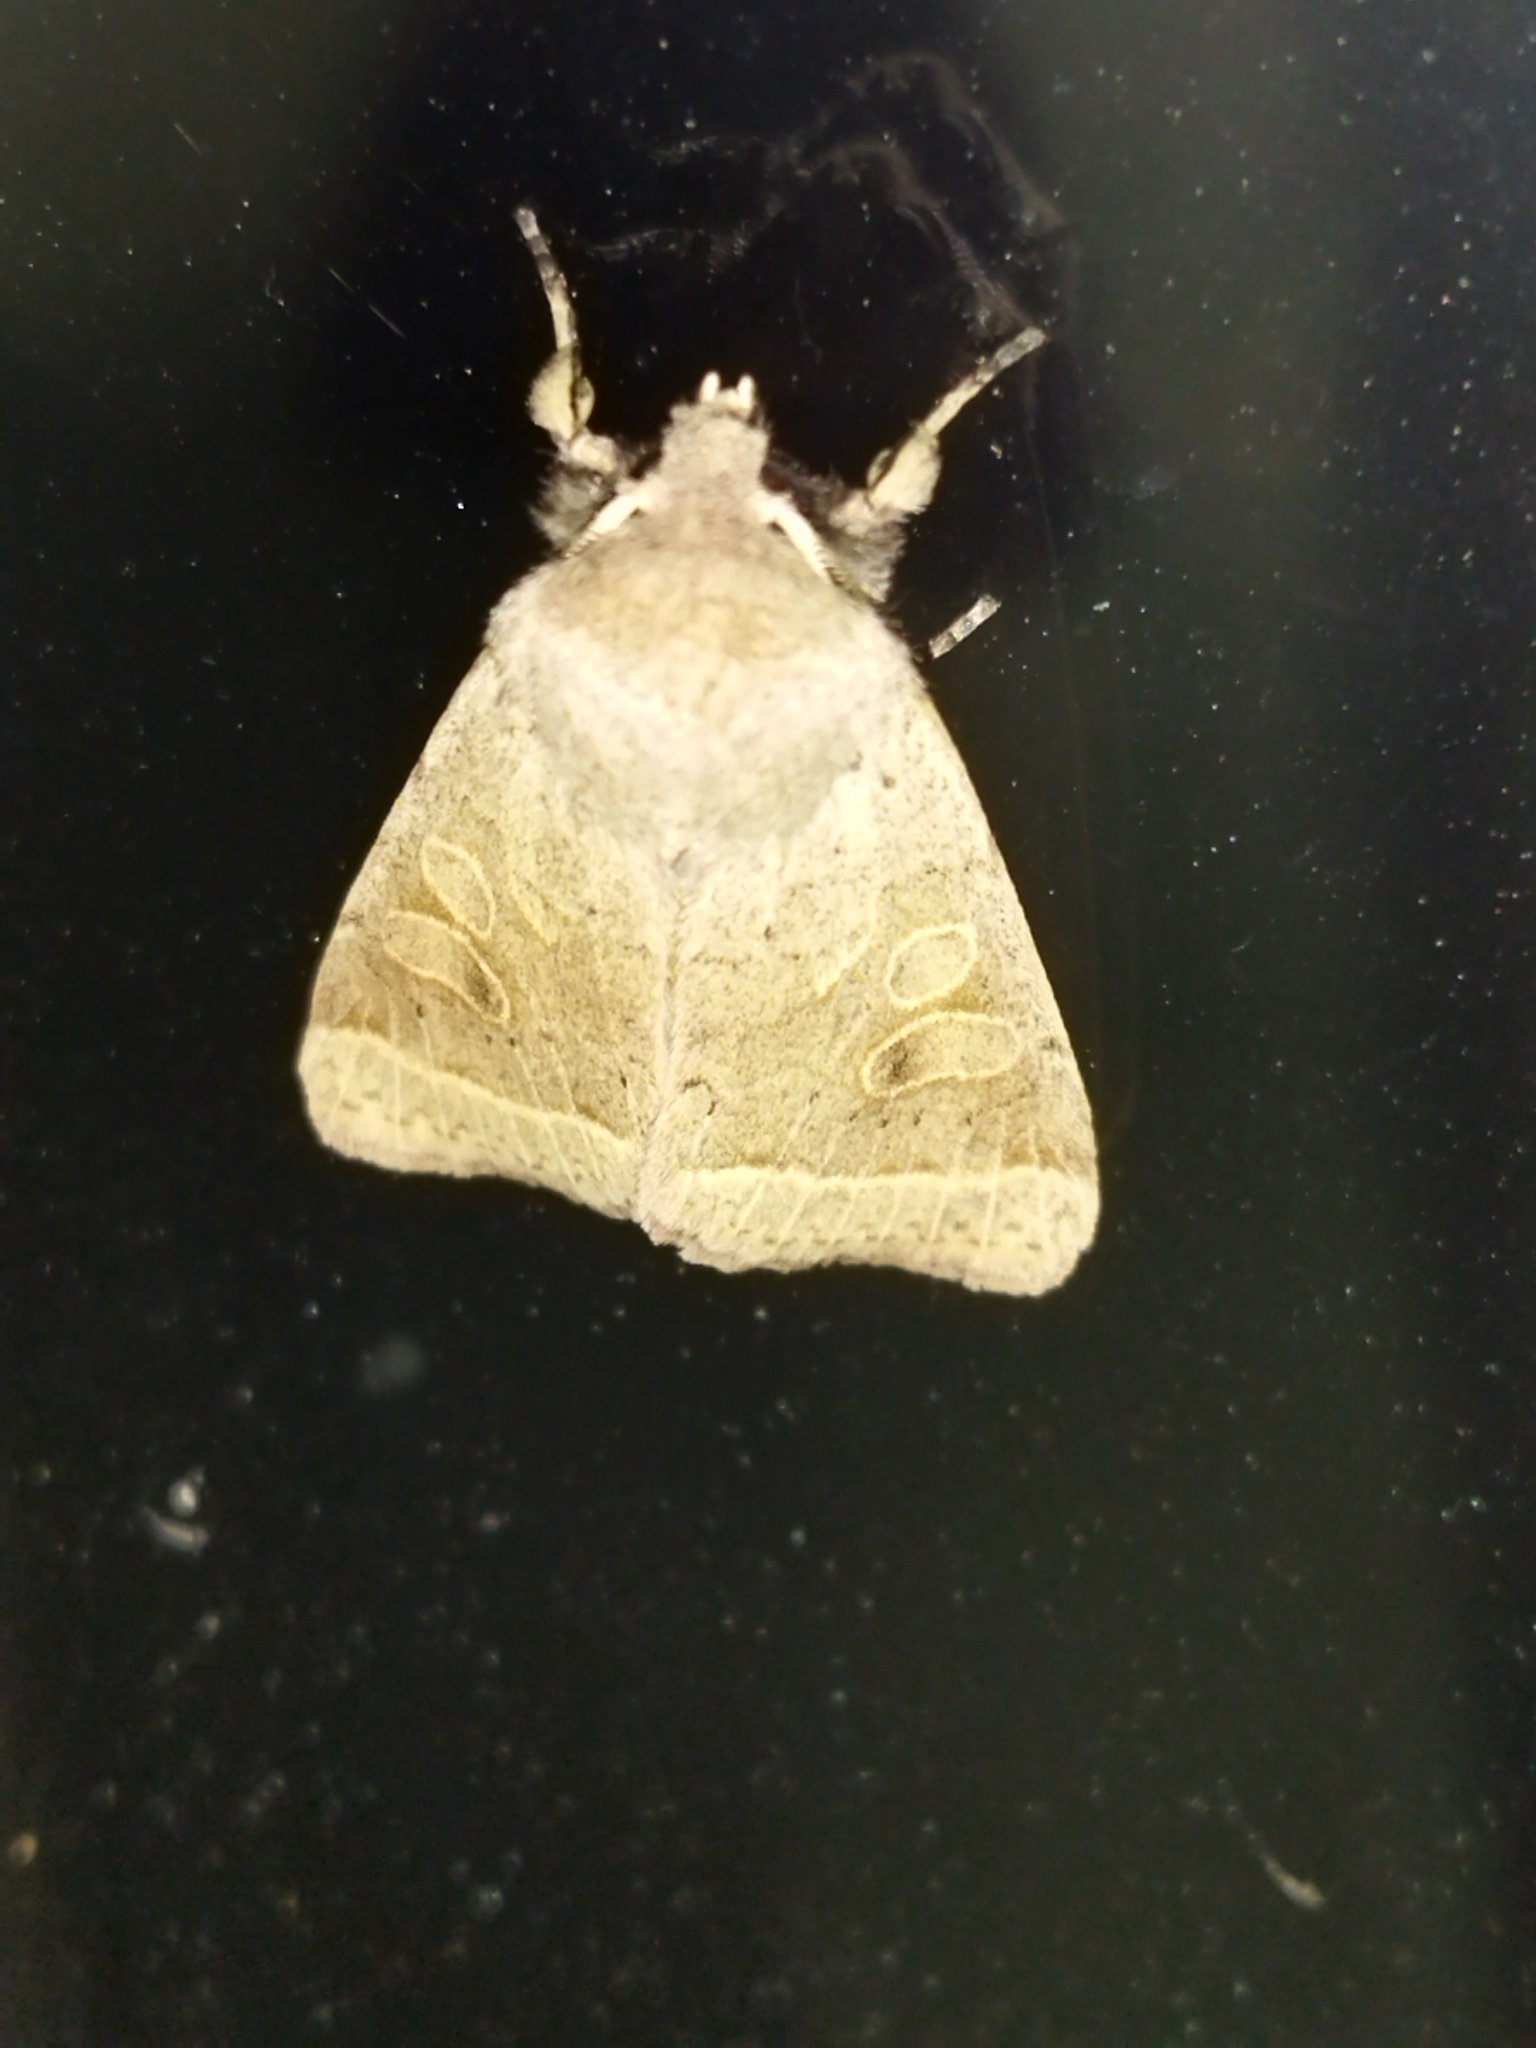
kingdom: Animalia
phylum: Arthropoda
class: Insecta
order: Lepidoptera
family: Noctuidae
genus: Orthosia
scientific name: Orthosia cerasi
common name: Common quaker
